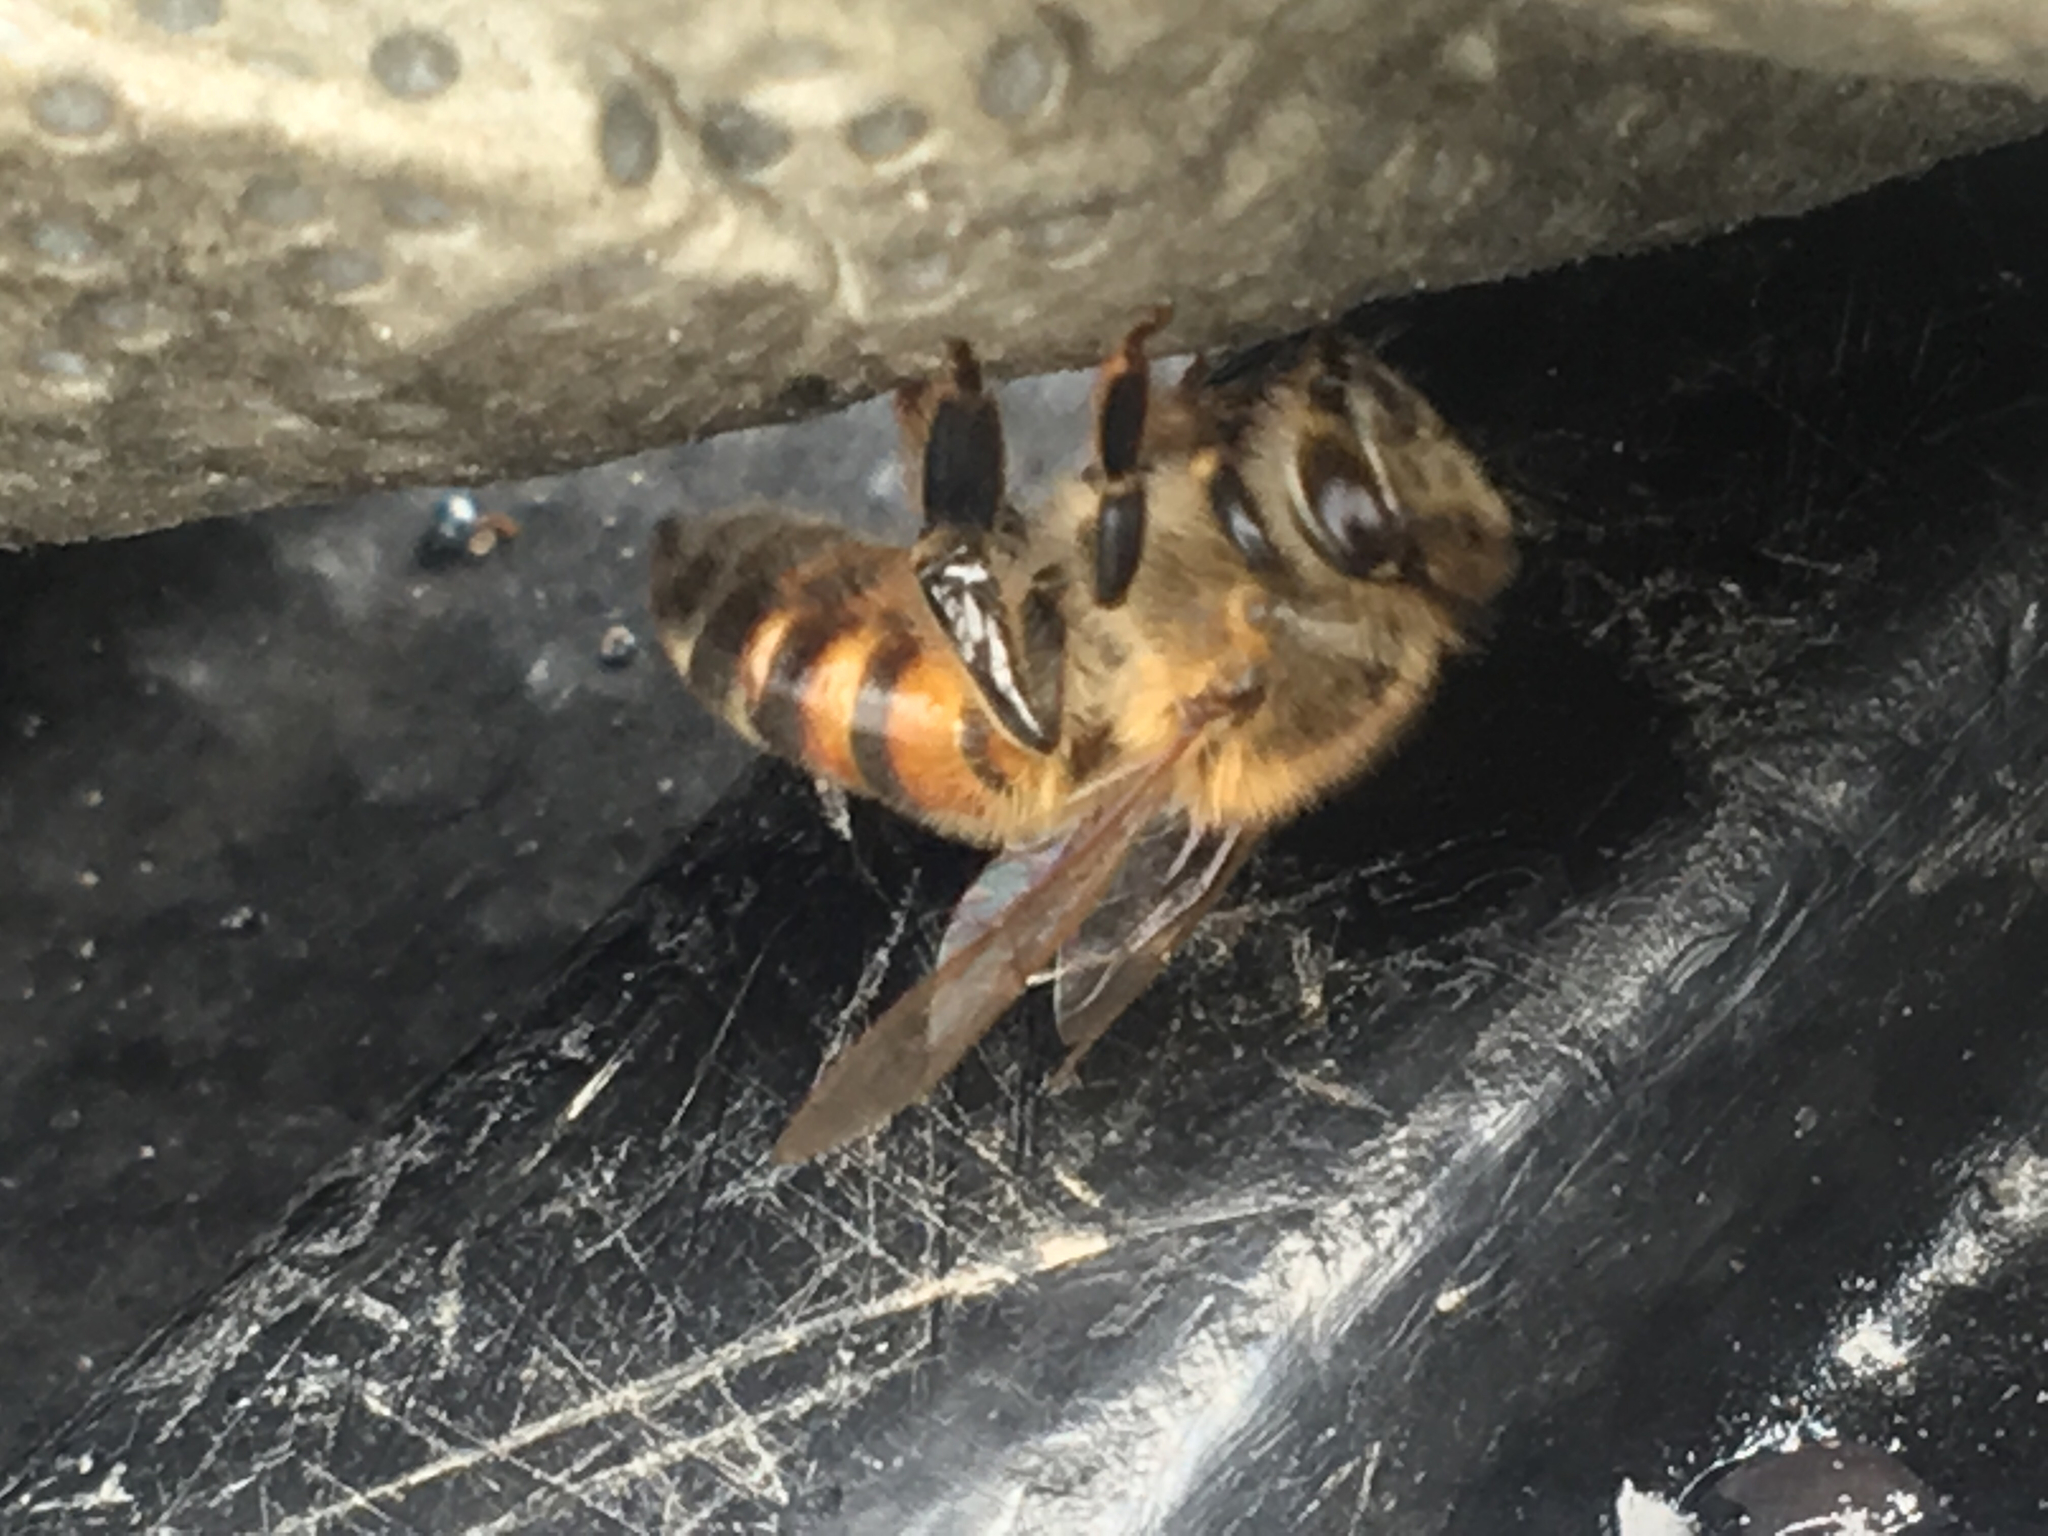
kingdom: Animalia
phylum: Arthropoda
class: Insecta
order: Hymenoptera
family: Apidae
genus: Apis
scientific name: Apis mellifera
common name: Honey bee
